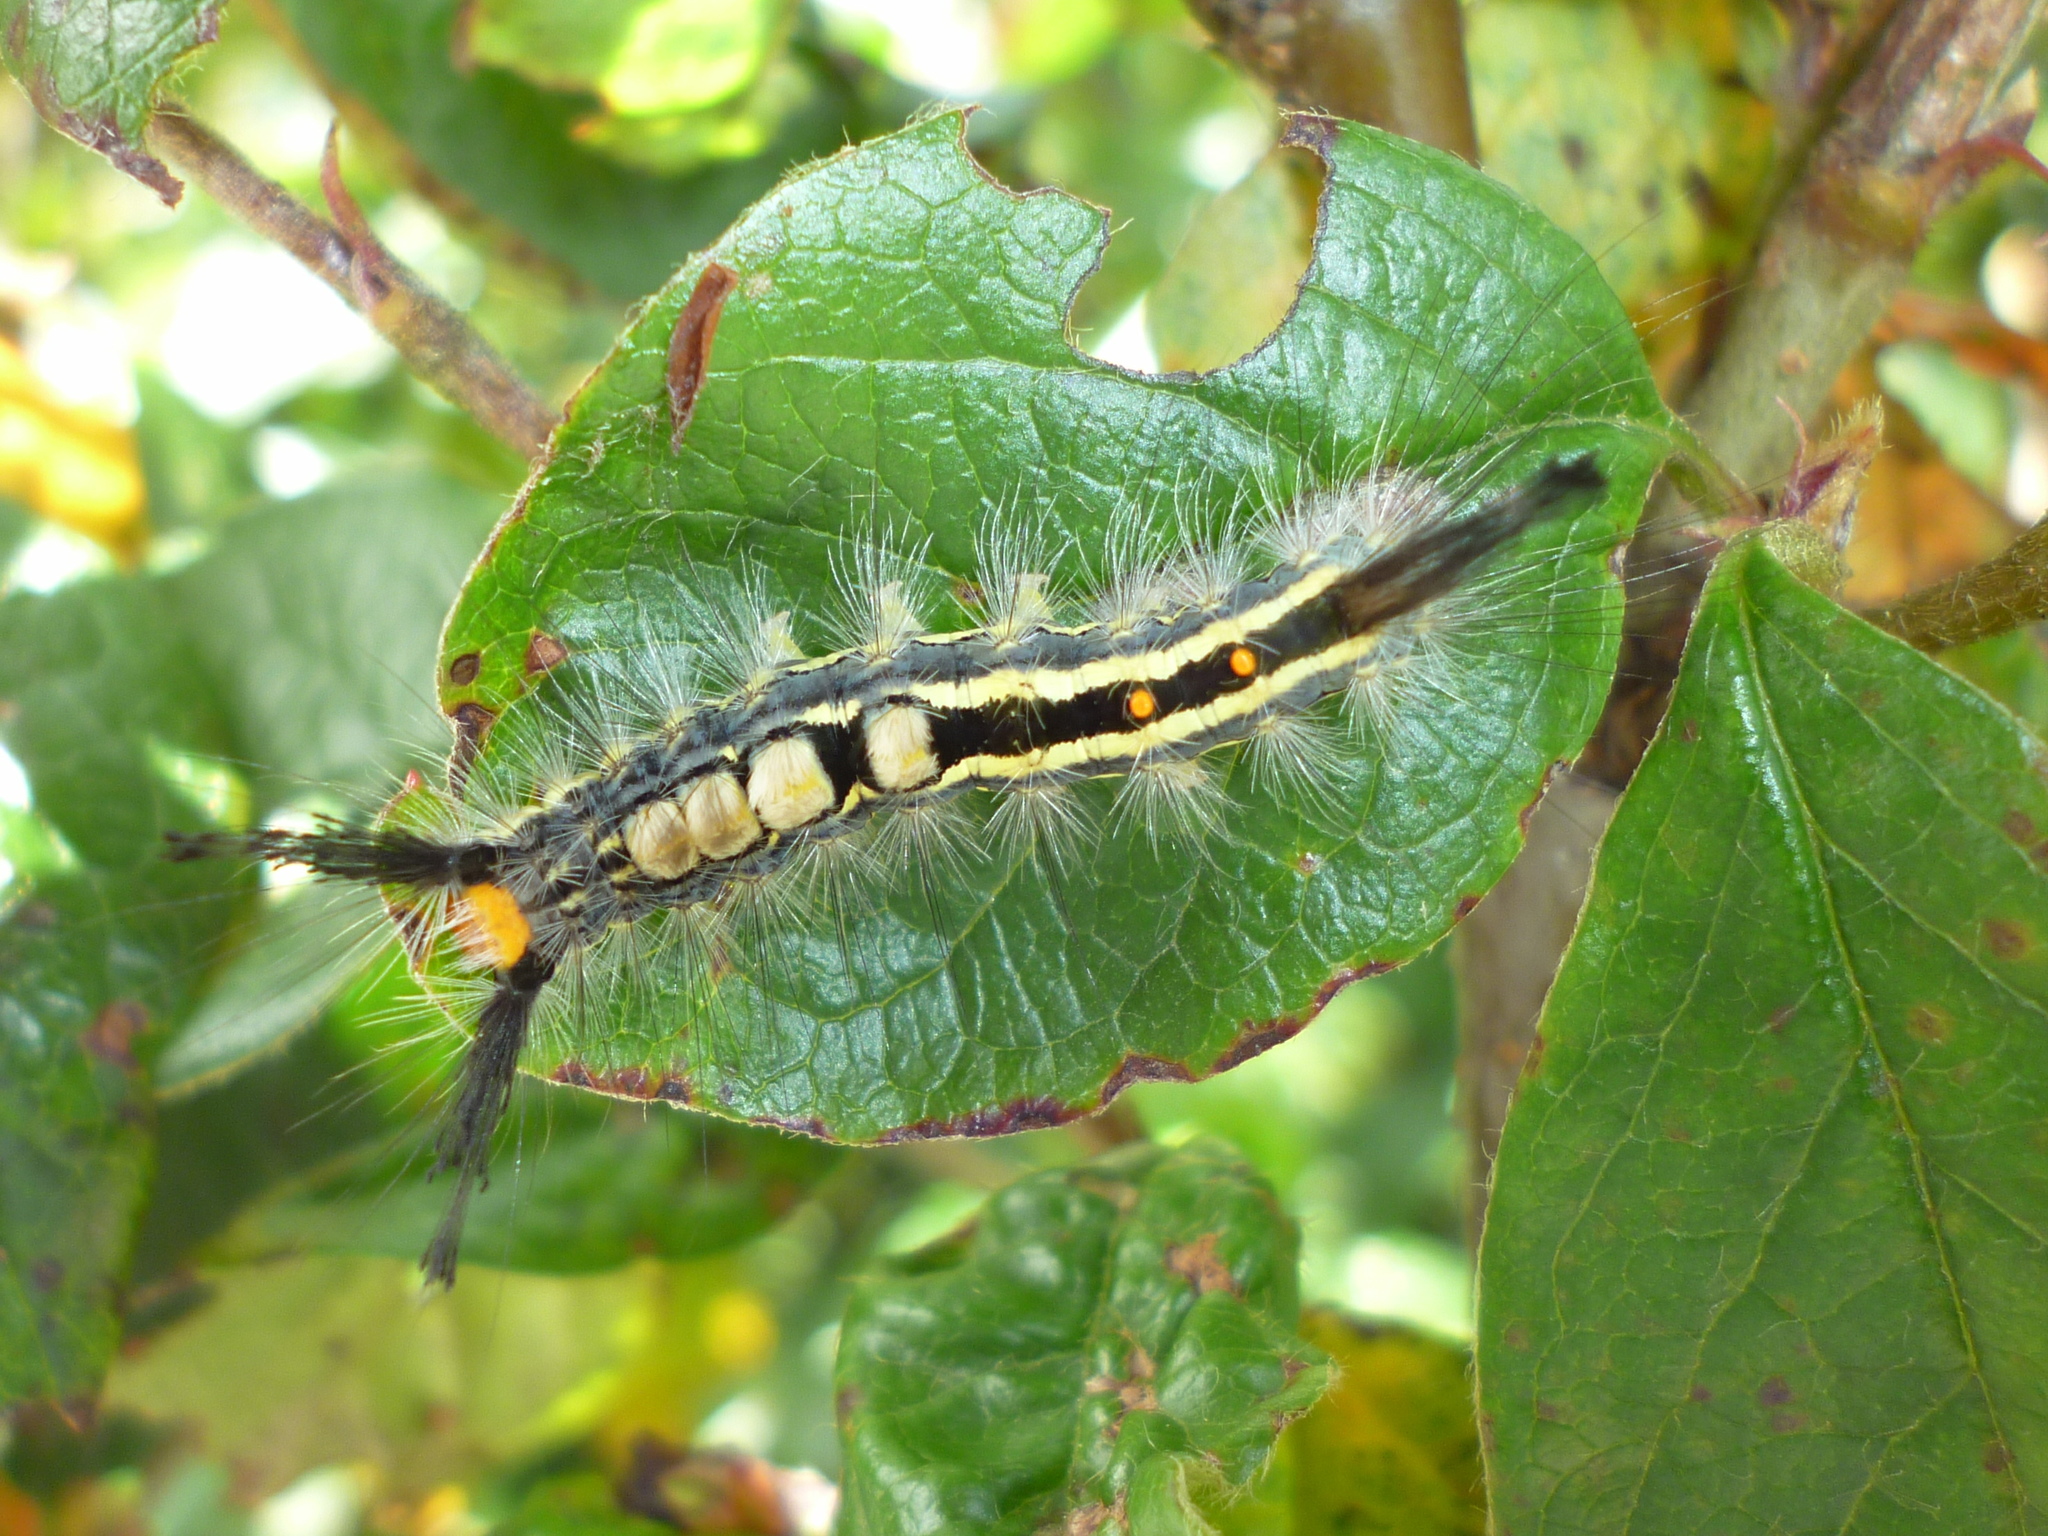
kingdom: Animalia
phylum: Arthropoda
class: Insecta
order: Lepidoptera
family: Erebidae
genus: Orgyia
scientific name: Orgyia leucostigma
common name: White-marked tussock moth
